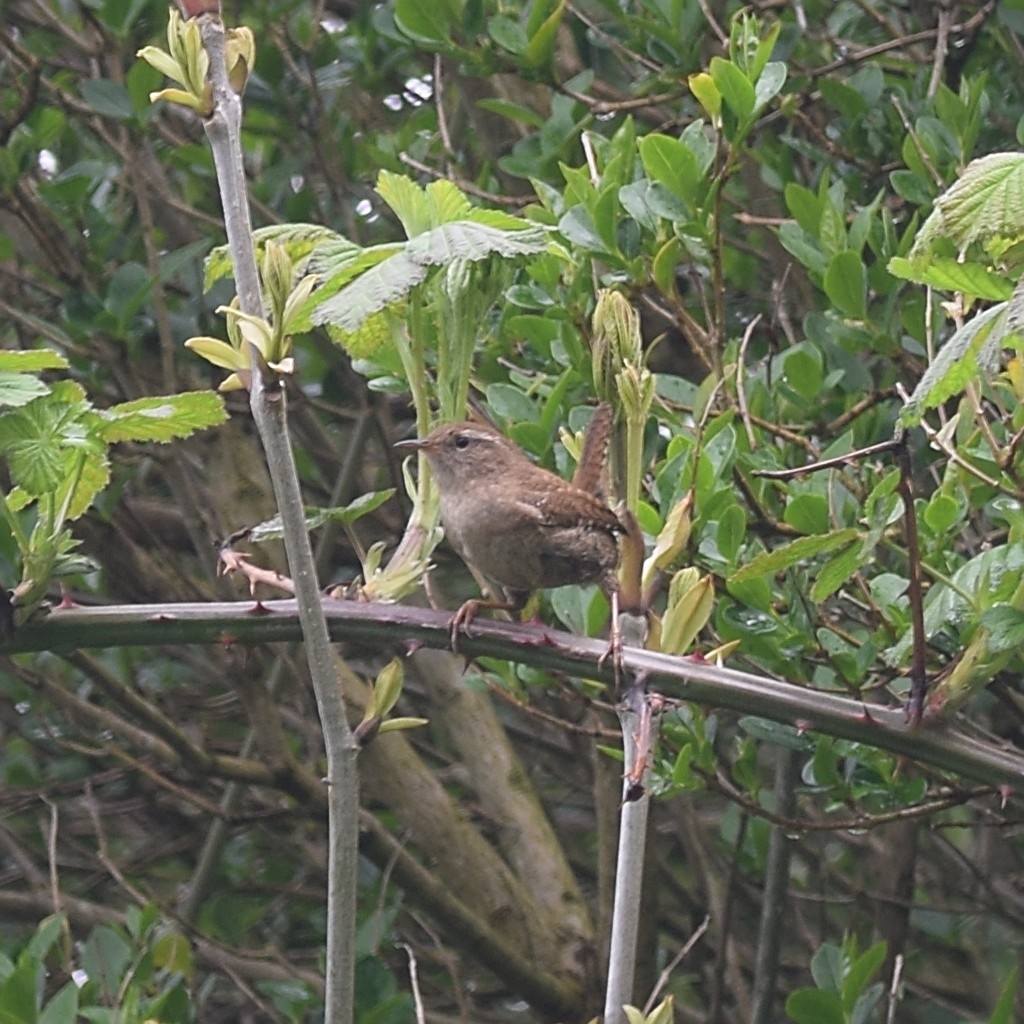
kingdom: Animalia
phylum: Chordata
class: Aves
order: Passeriformes
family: Troglodytidae
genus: Troglodytes
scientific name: Troglodytes troglodytes
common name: Eurasian wren
